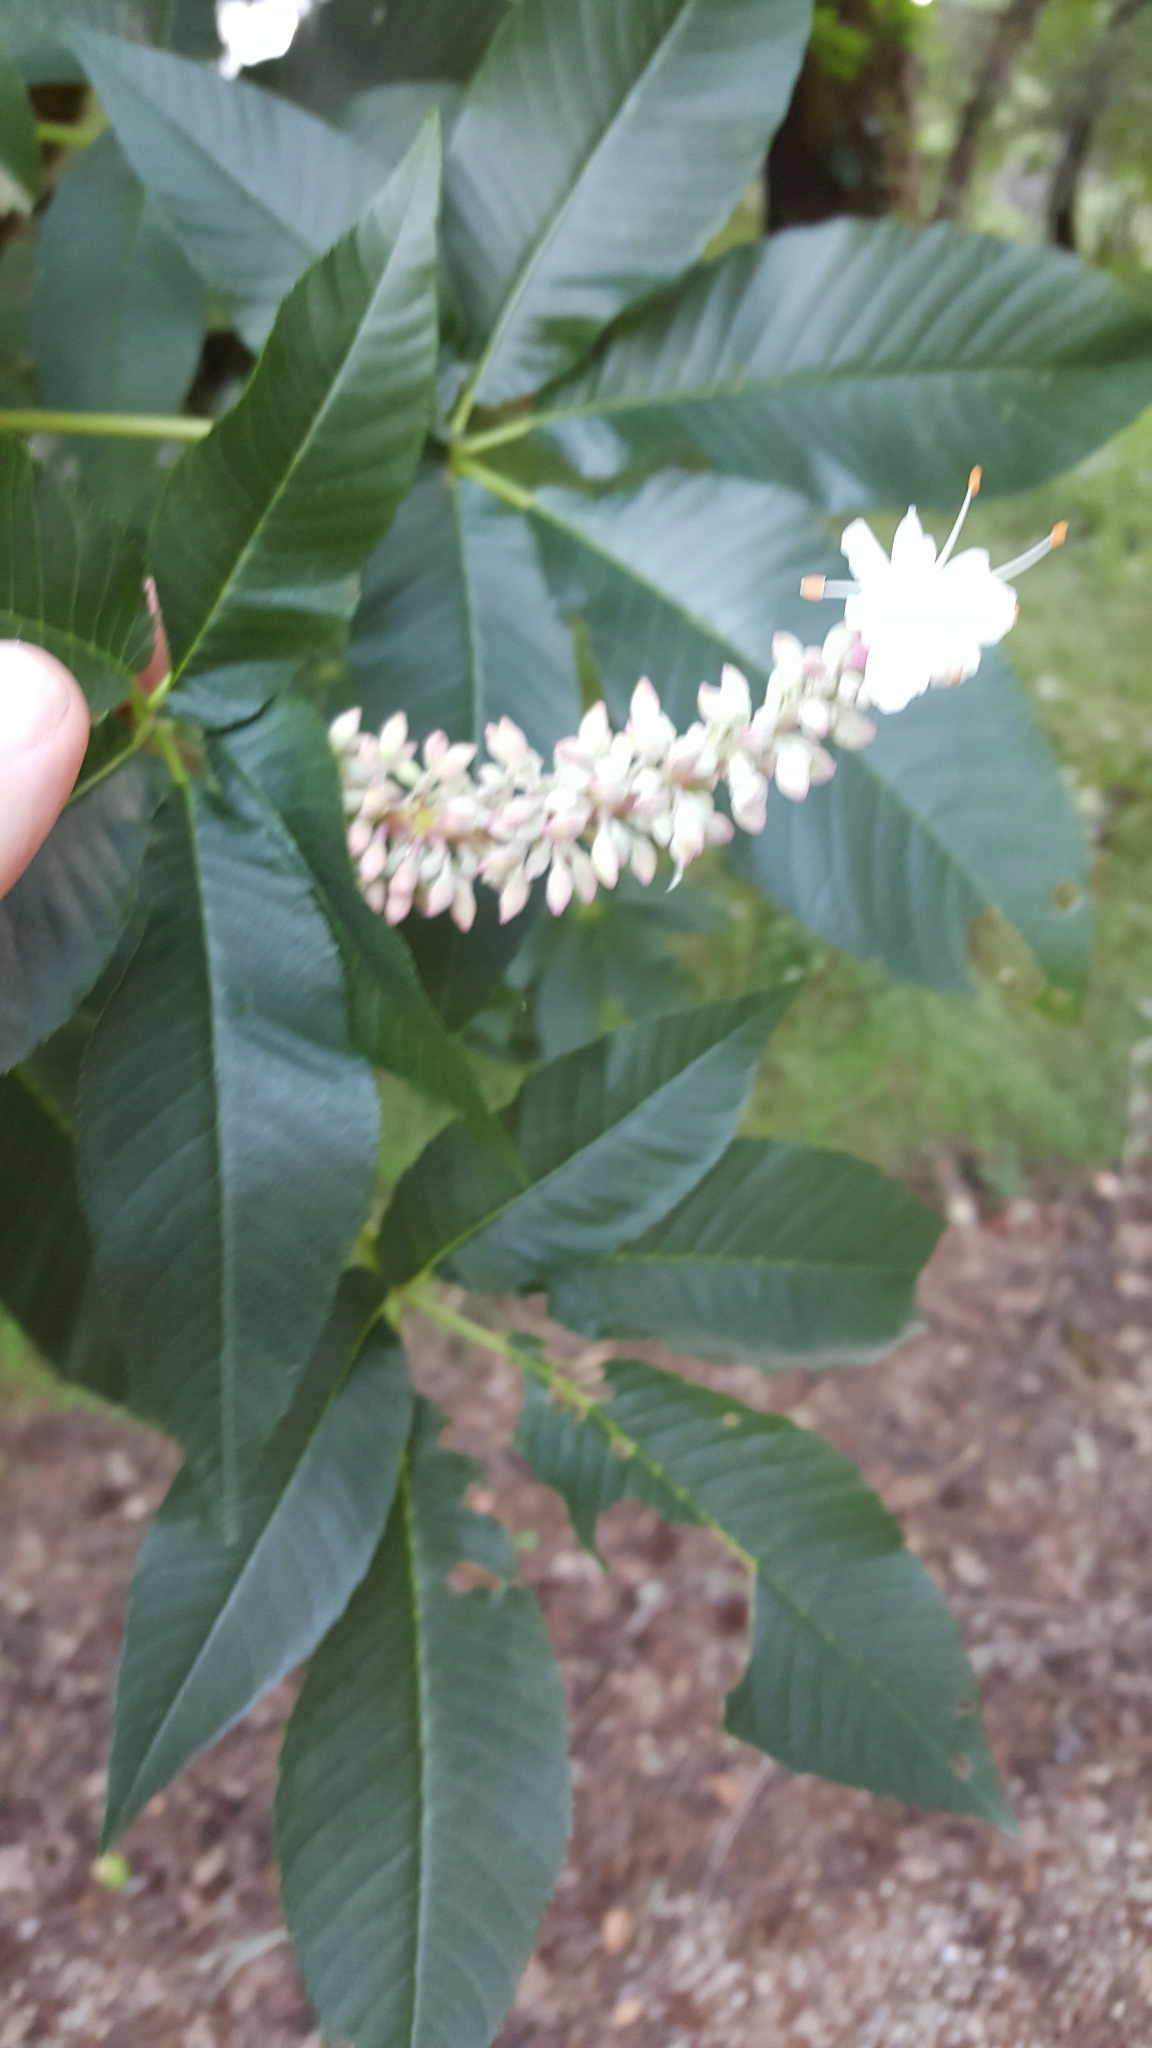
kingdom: Plantae
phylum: Tracheophyta
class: Magnoliopsida
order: Sapindales
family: Sapindaceae
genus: Aesculus
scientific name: Aesculus californica
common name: California buckeye
